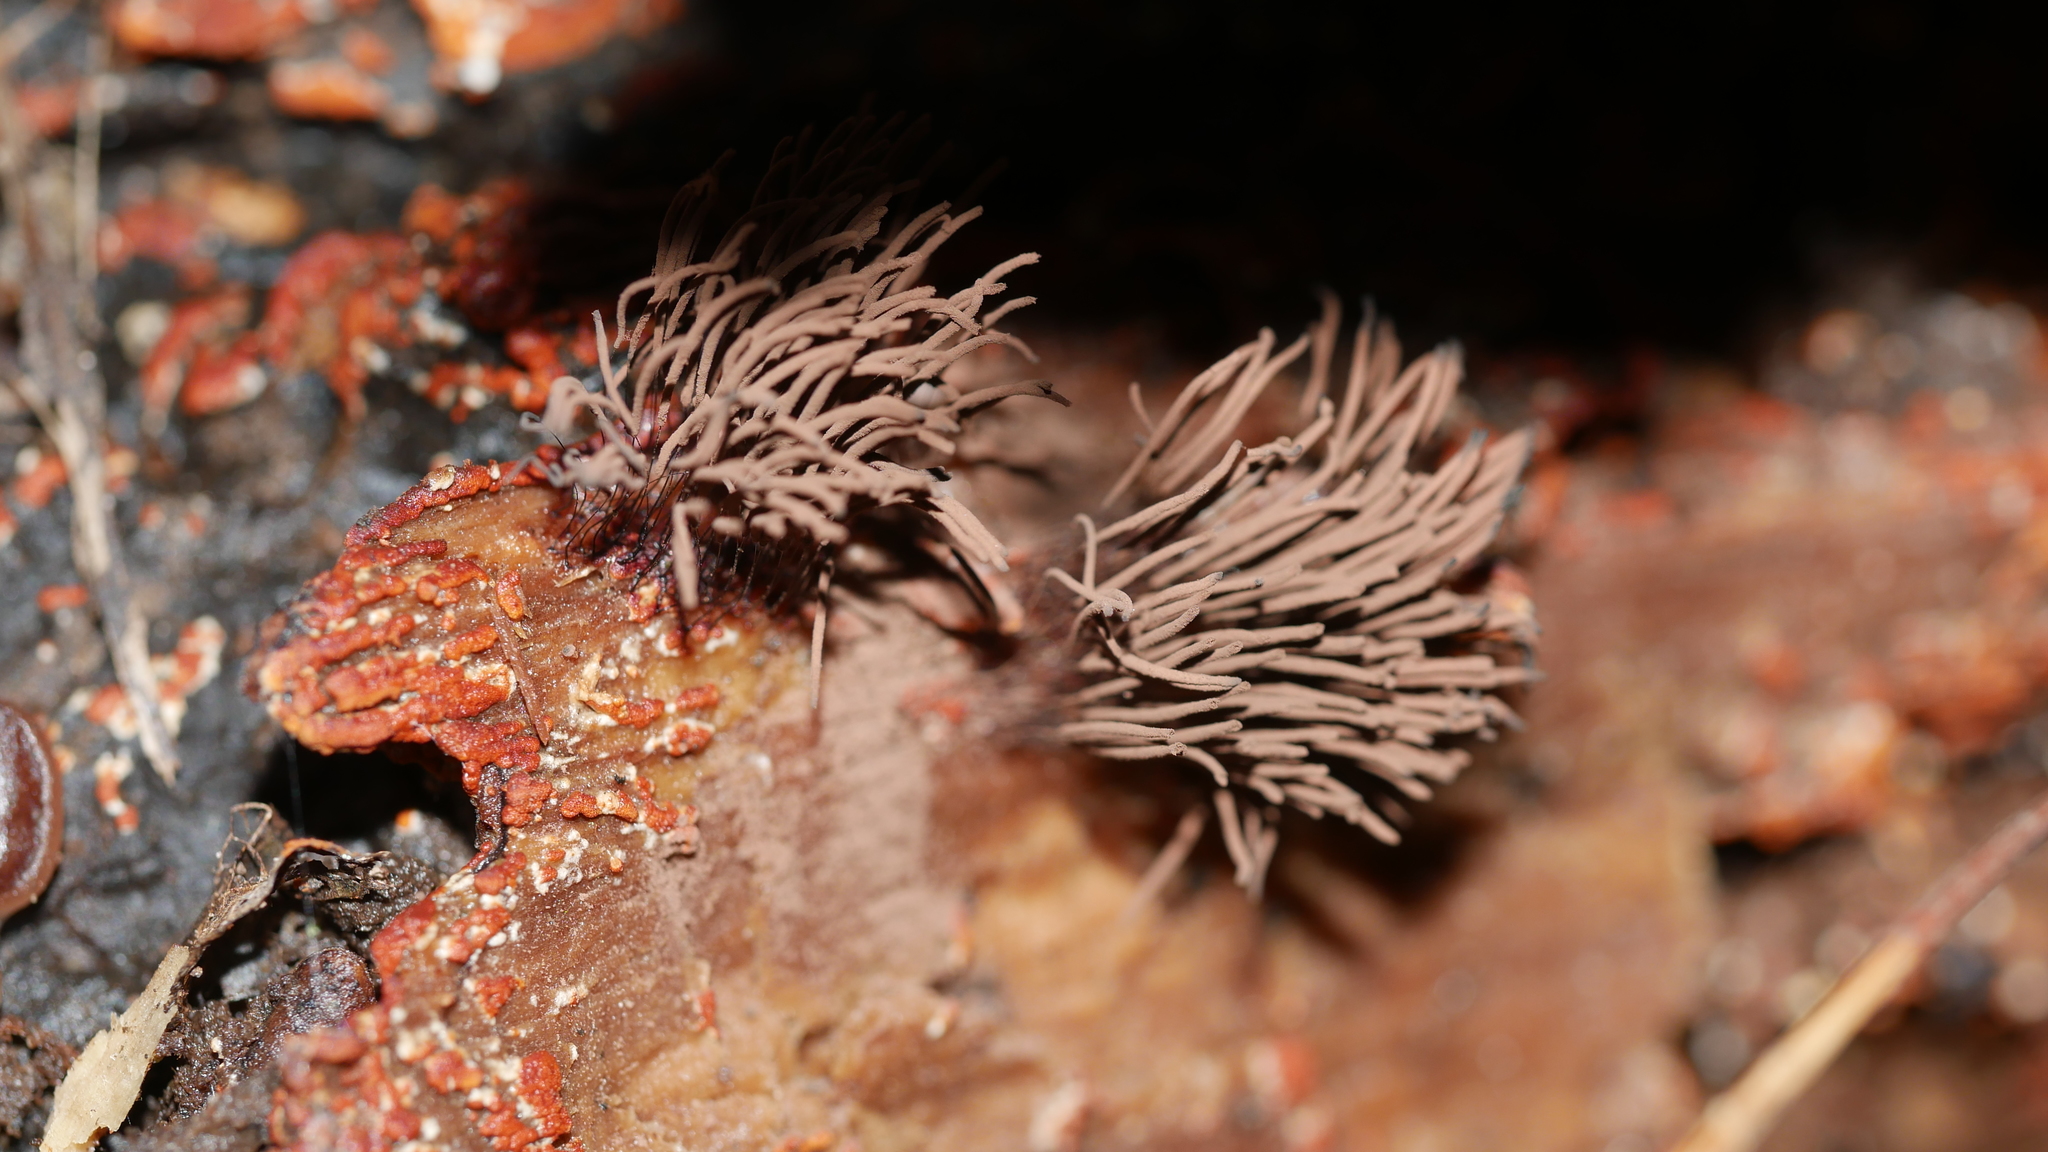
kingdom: Protozoa
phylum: Mycetozoa
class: Myxomycetes
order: Stemonitidales
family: Stemonitidaceae
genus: Stemonitis
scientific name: Stemonitis splendens
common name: Chocolate tube slime
